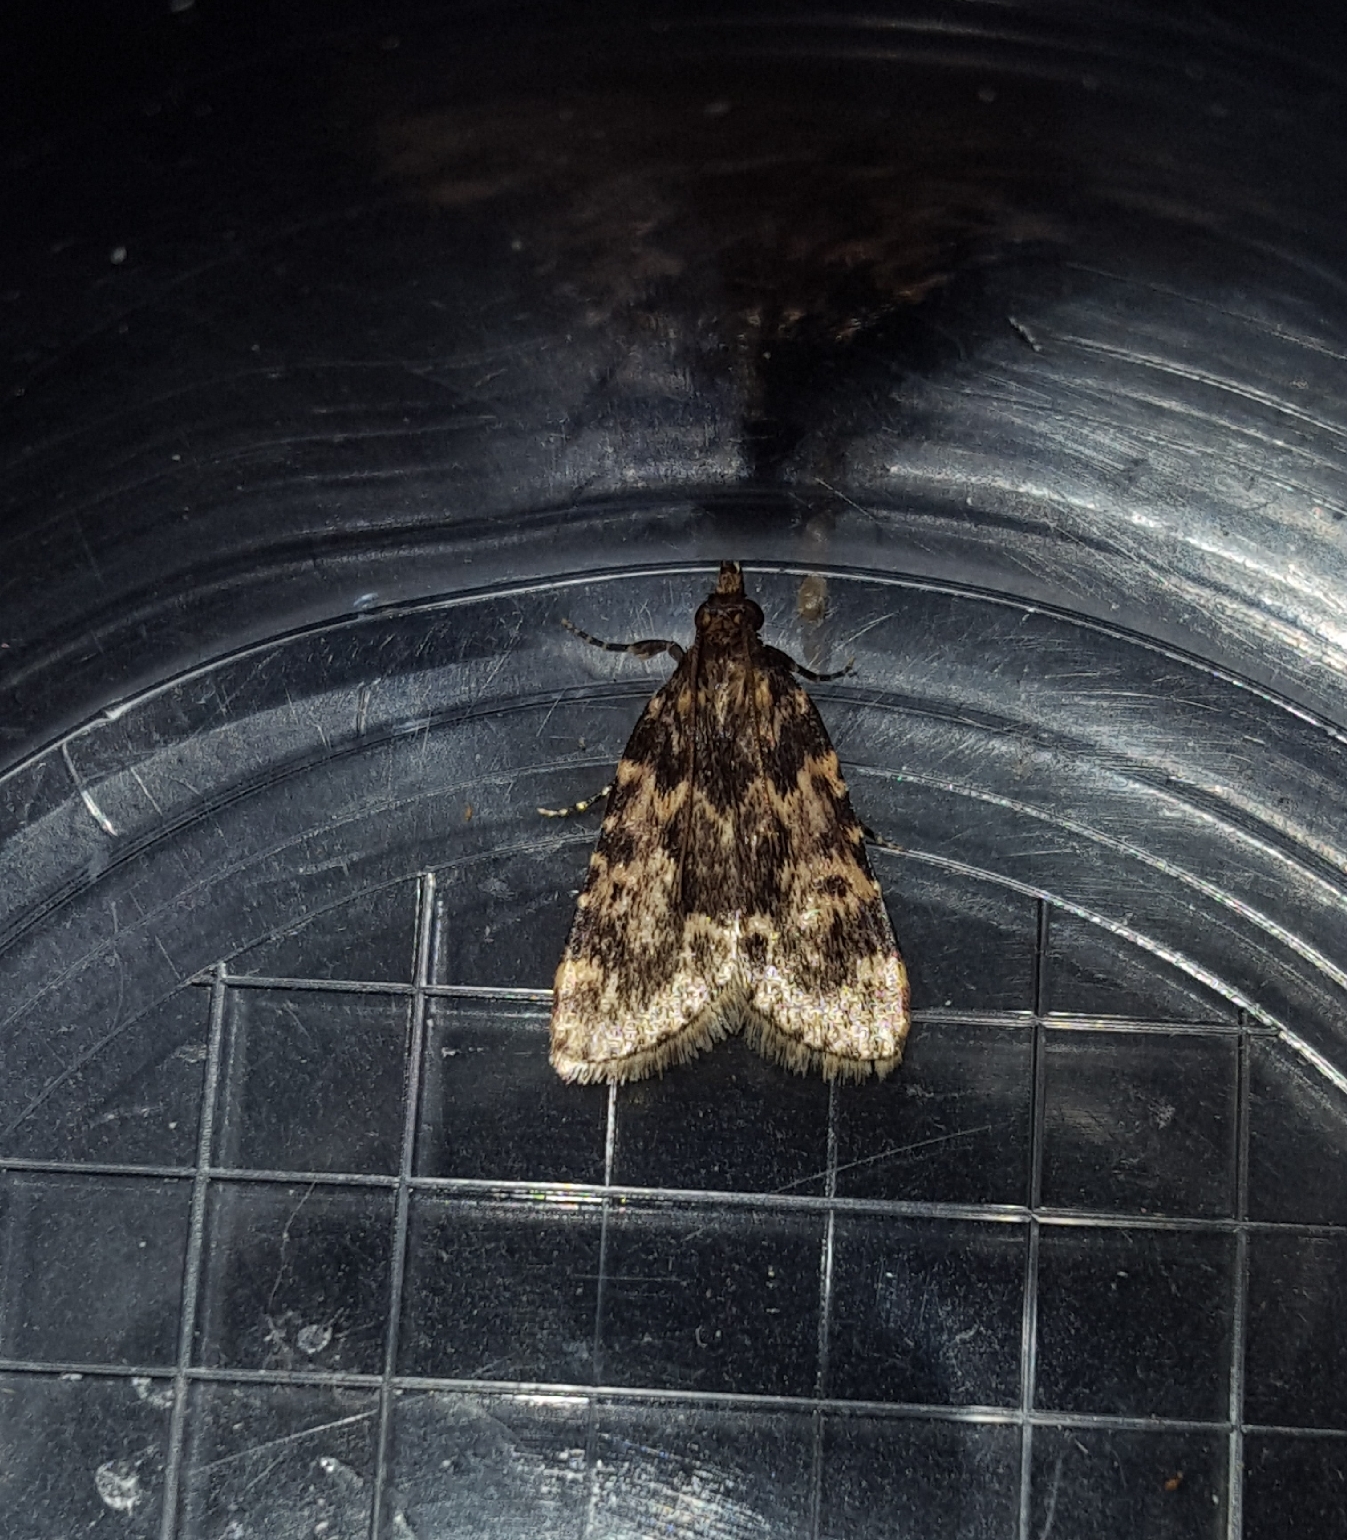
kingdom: Animalia
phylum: Arthropoda
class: Insecta
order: Lepidoptera
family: Pyralidae
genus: Aglossa
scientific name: Aglossa caprealis
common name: Small tabby
